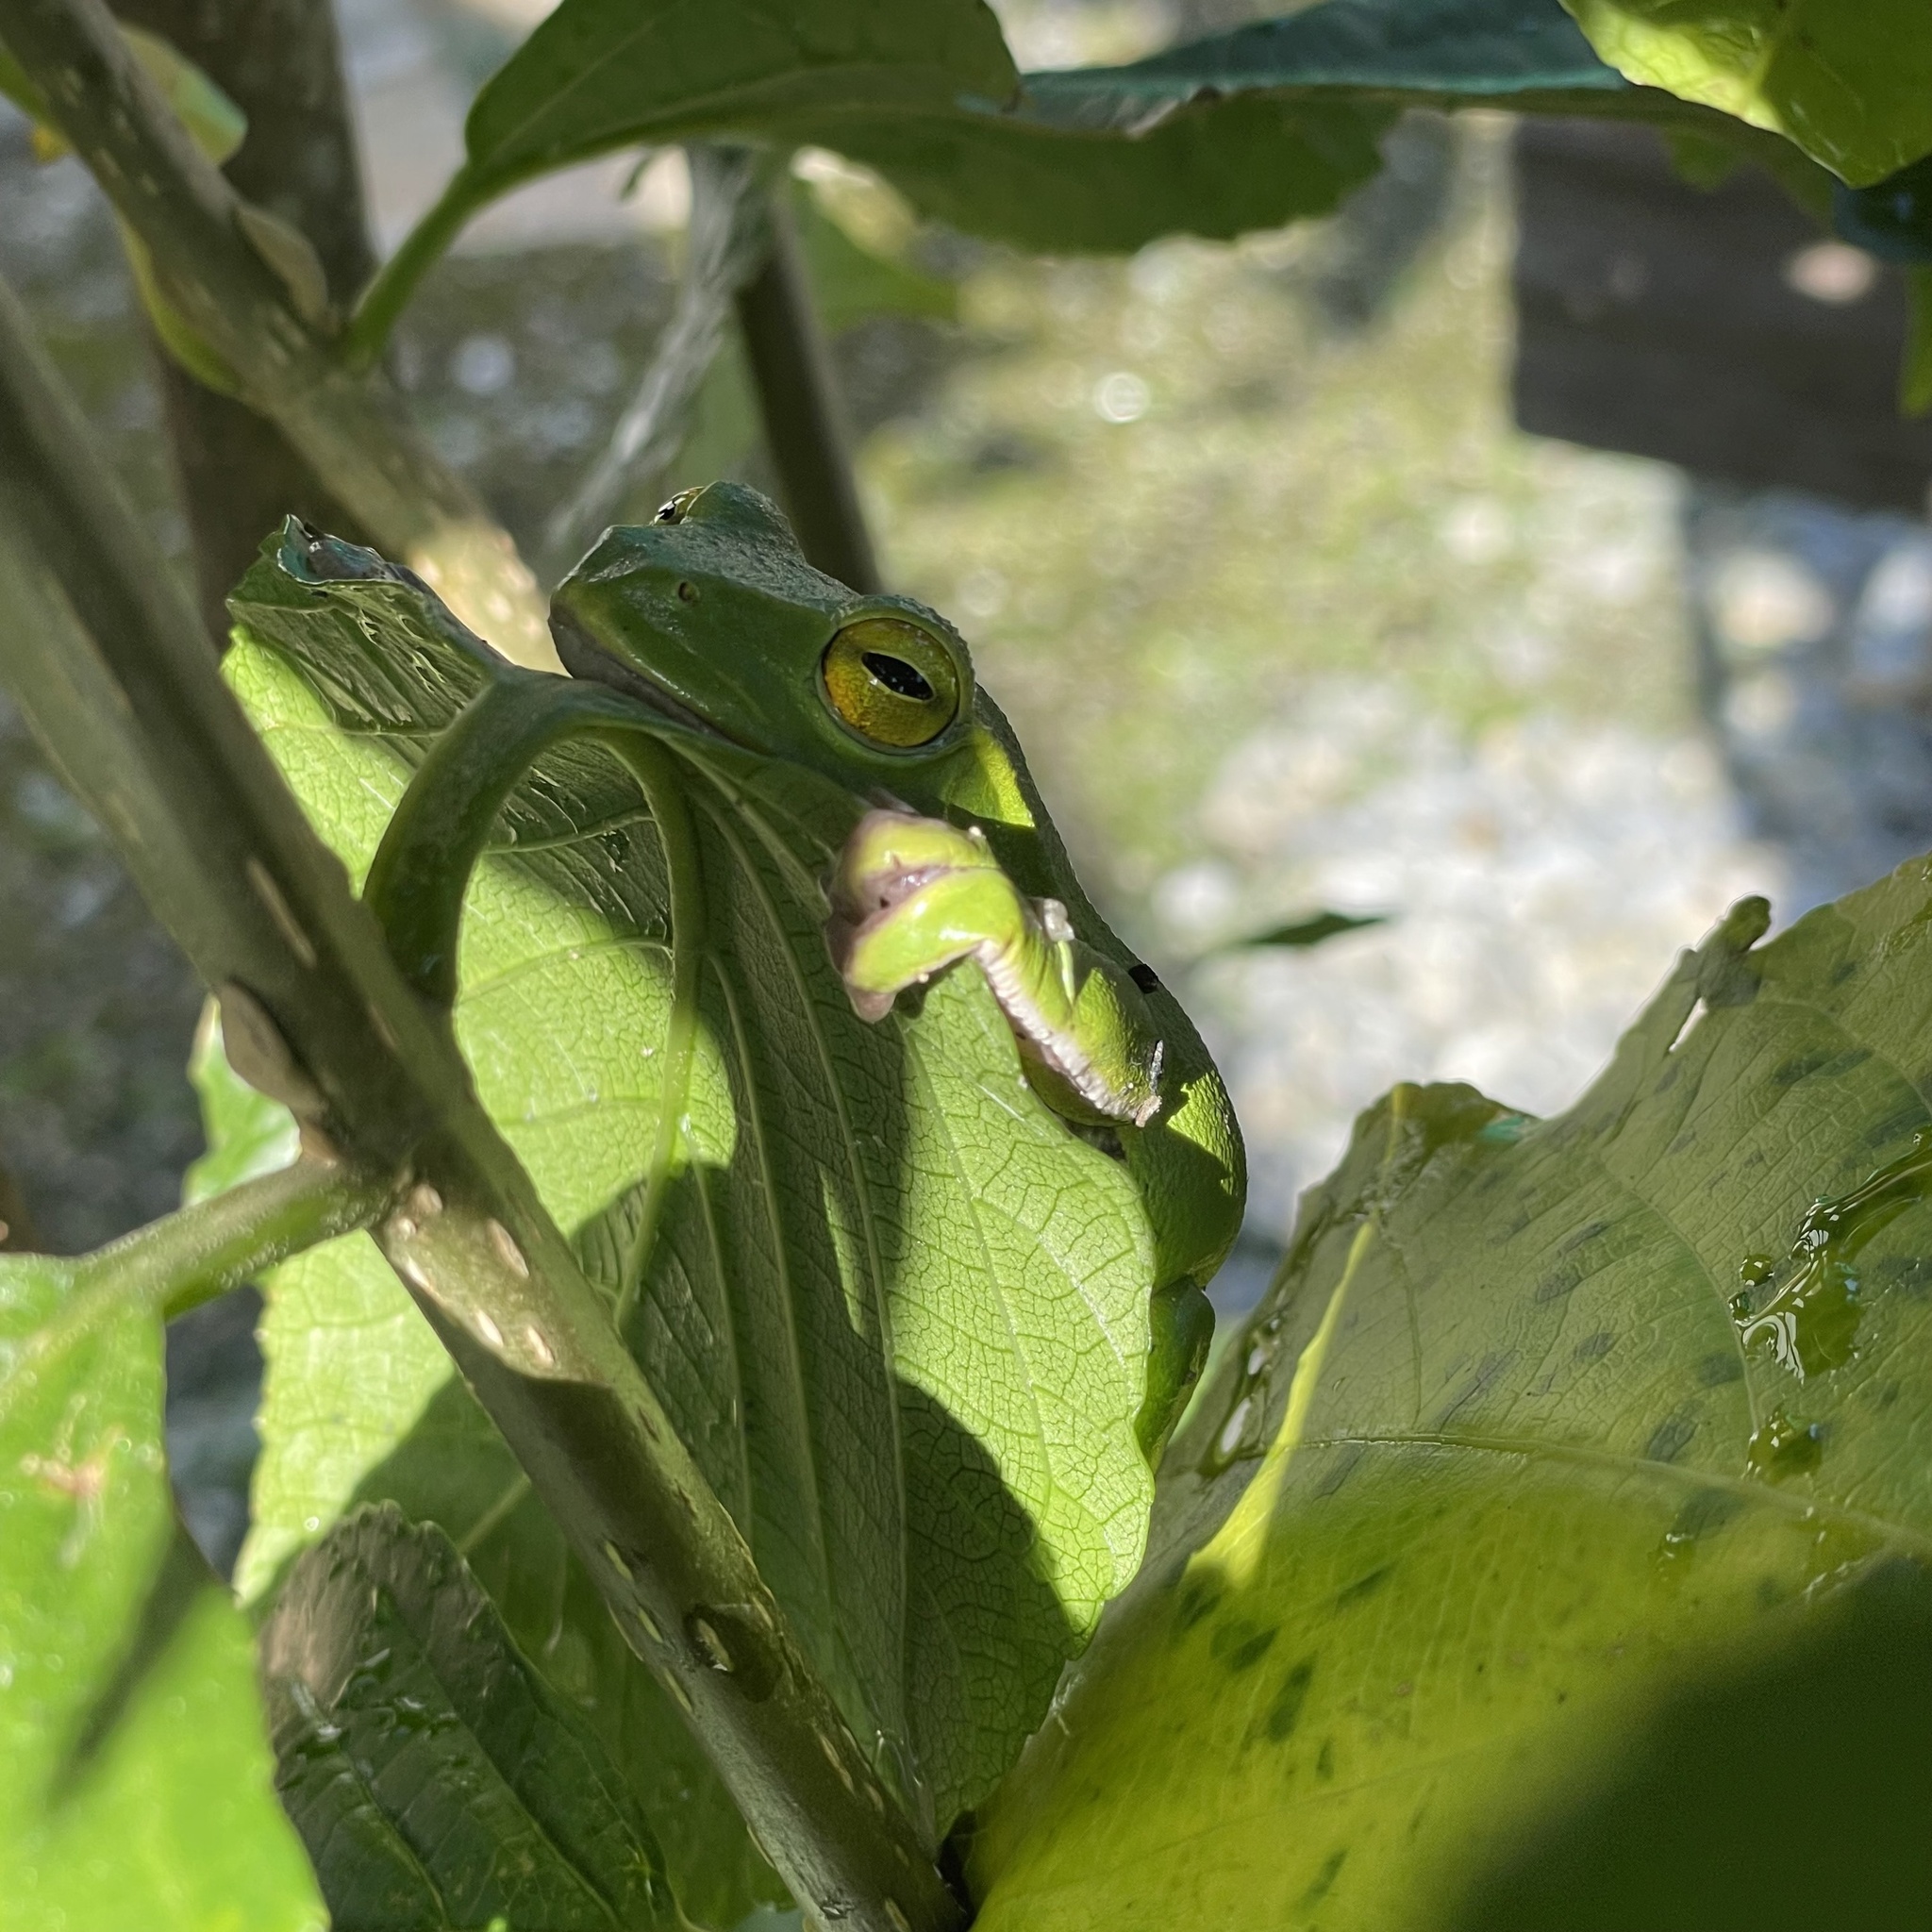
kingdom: Animalia
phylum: Chordata
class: Amphibia
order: Anura
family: Rhacophoridae
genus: Zhangixalus
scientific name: Zhangixalus viridis
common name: Green flying frog
